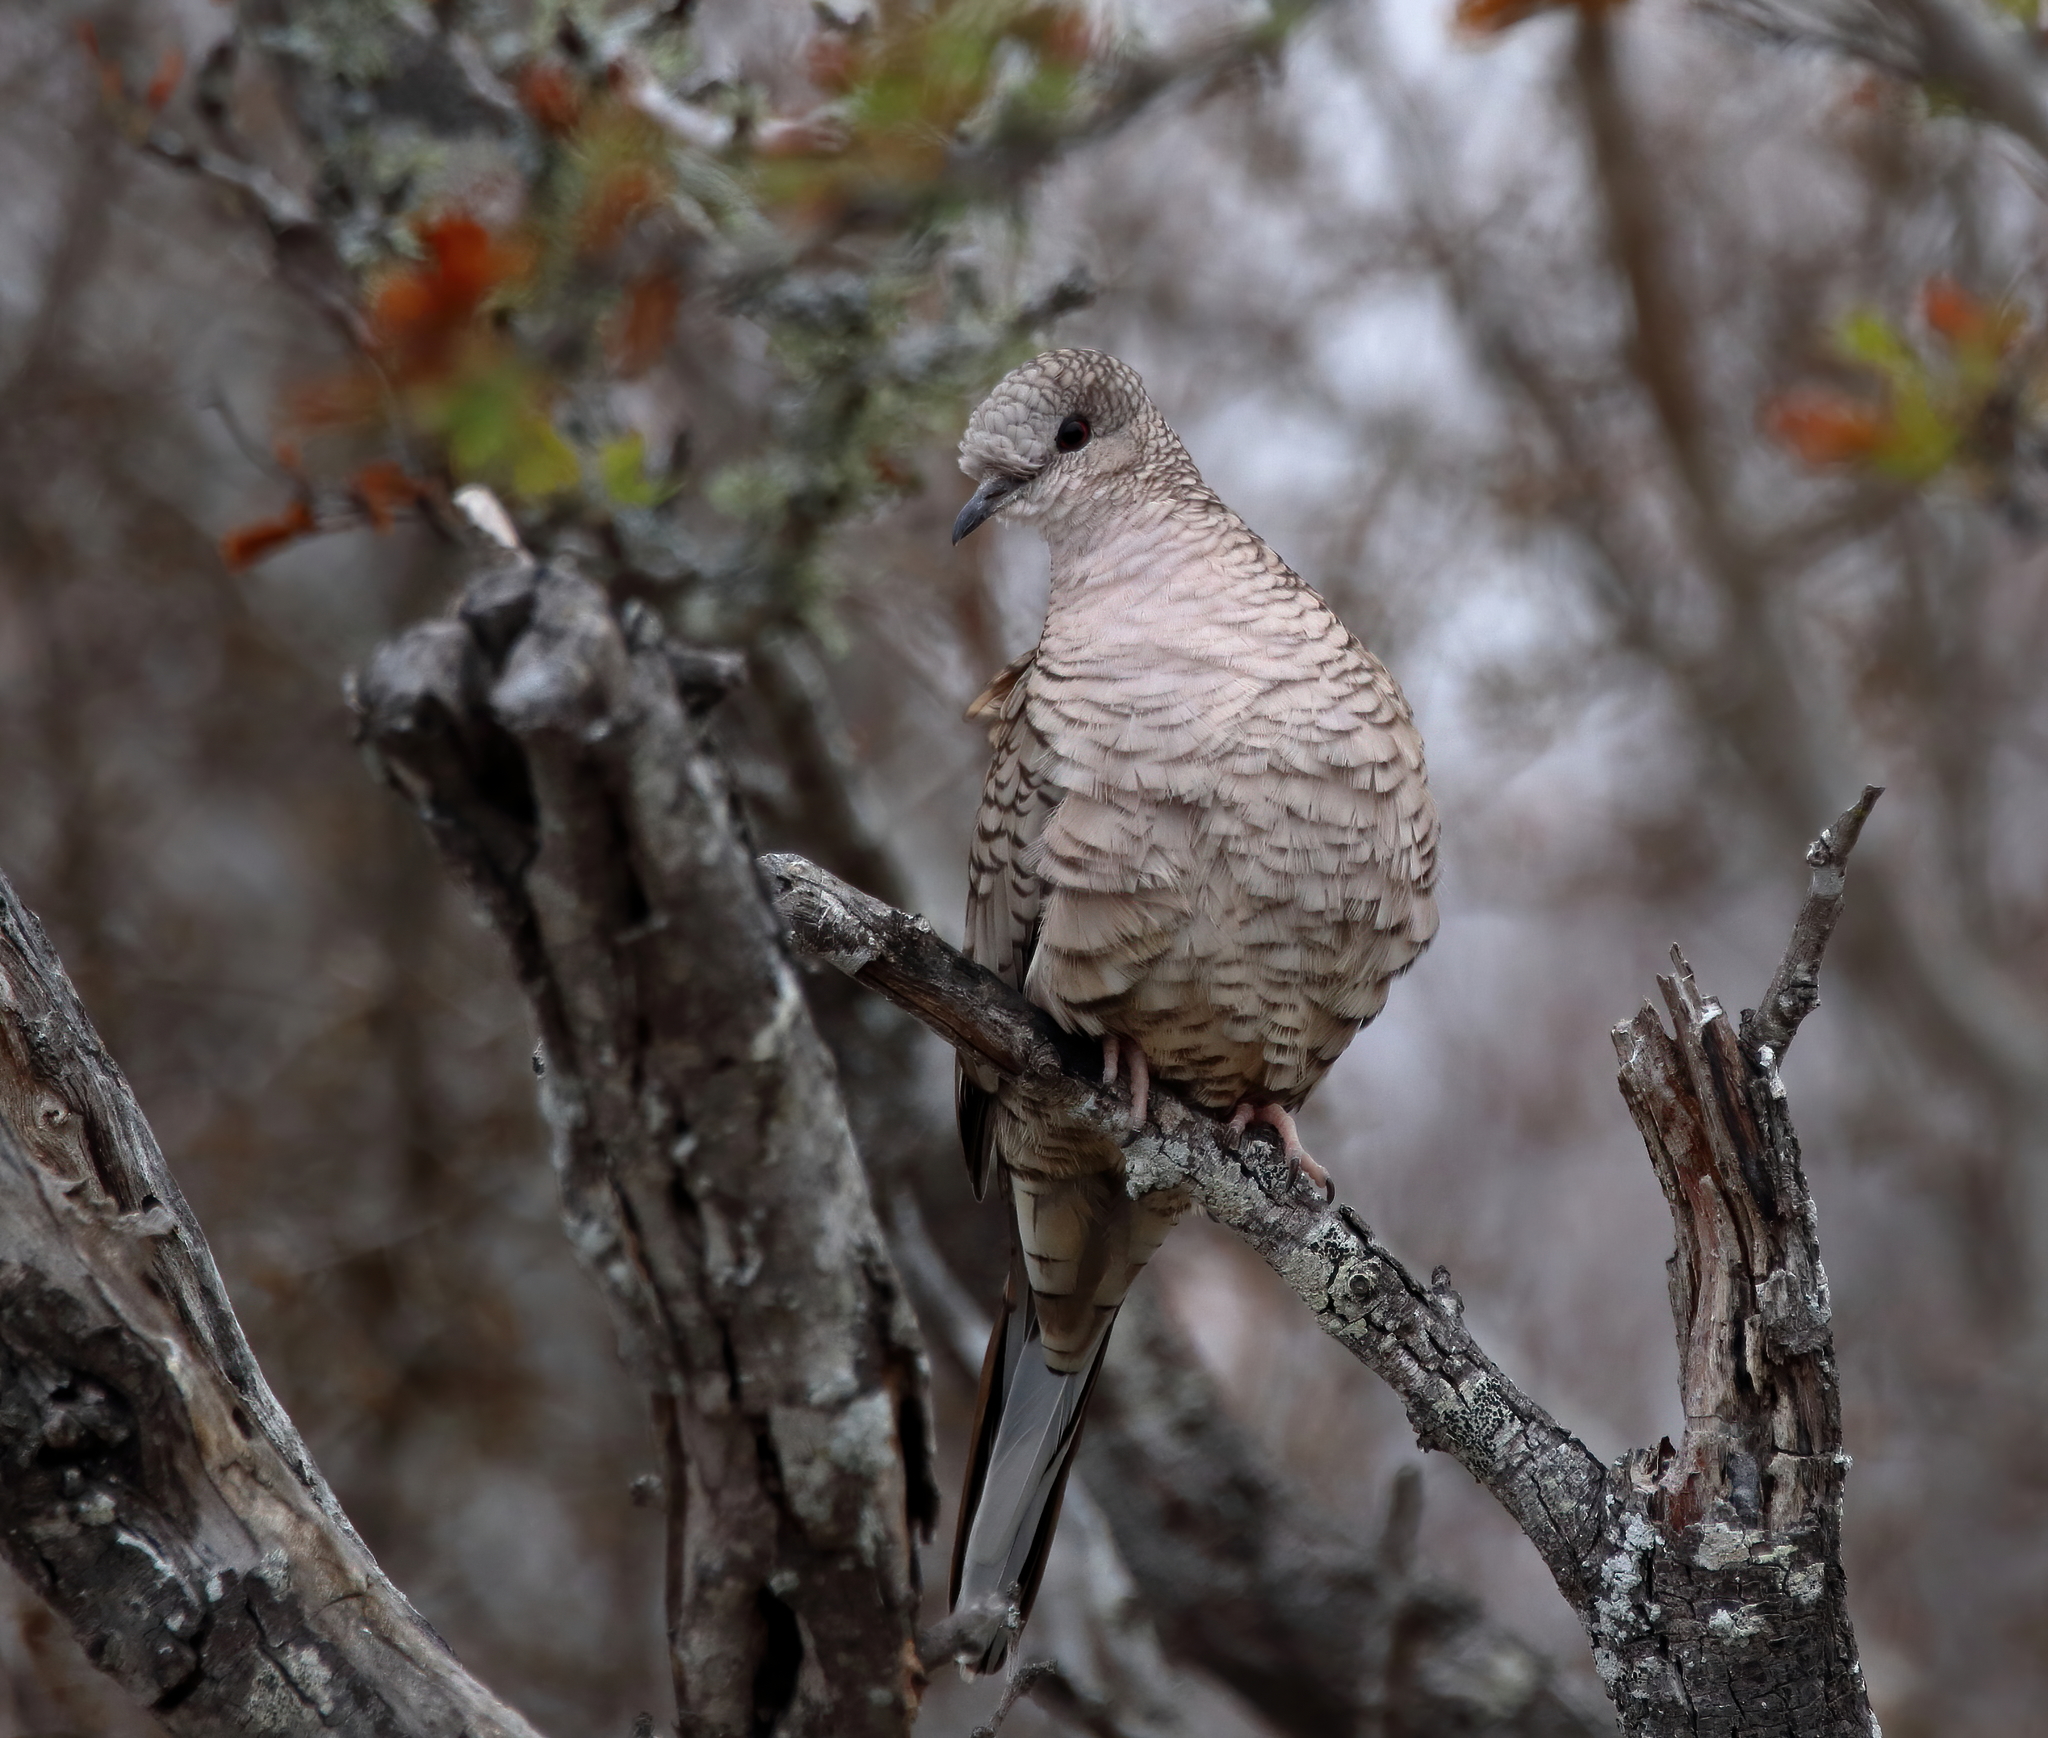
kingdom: Animalia
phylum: Chordata
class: Aves
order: Columbiformes
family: Columbidae
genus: Columbina
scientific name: Columbina inca
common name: Inca dove
